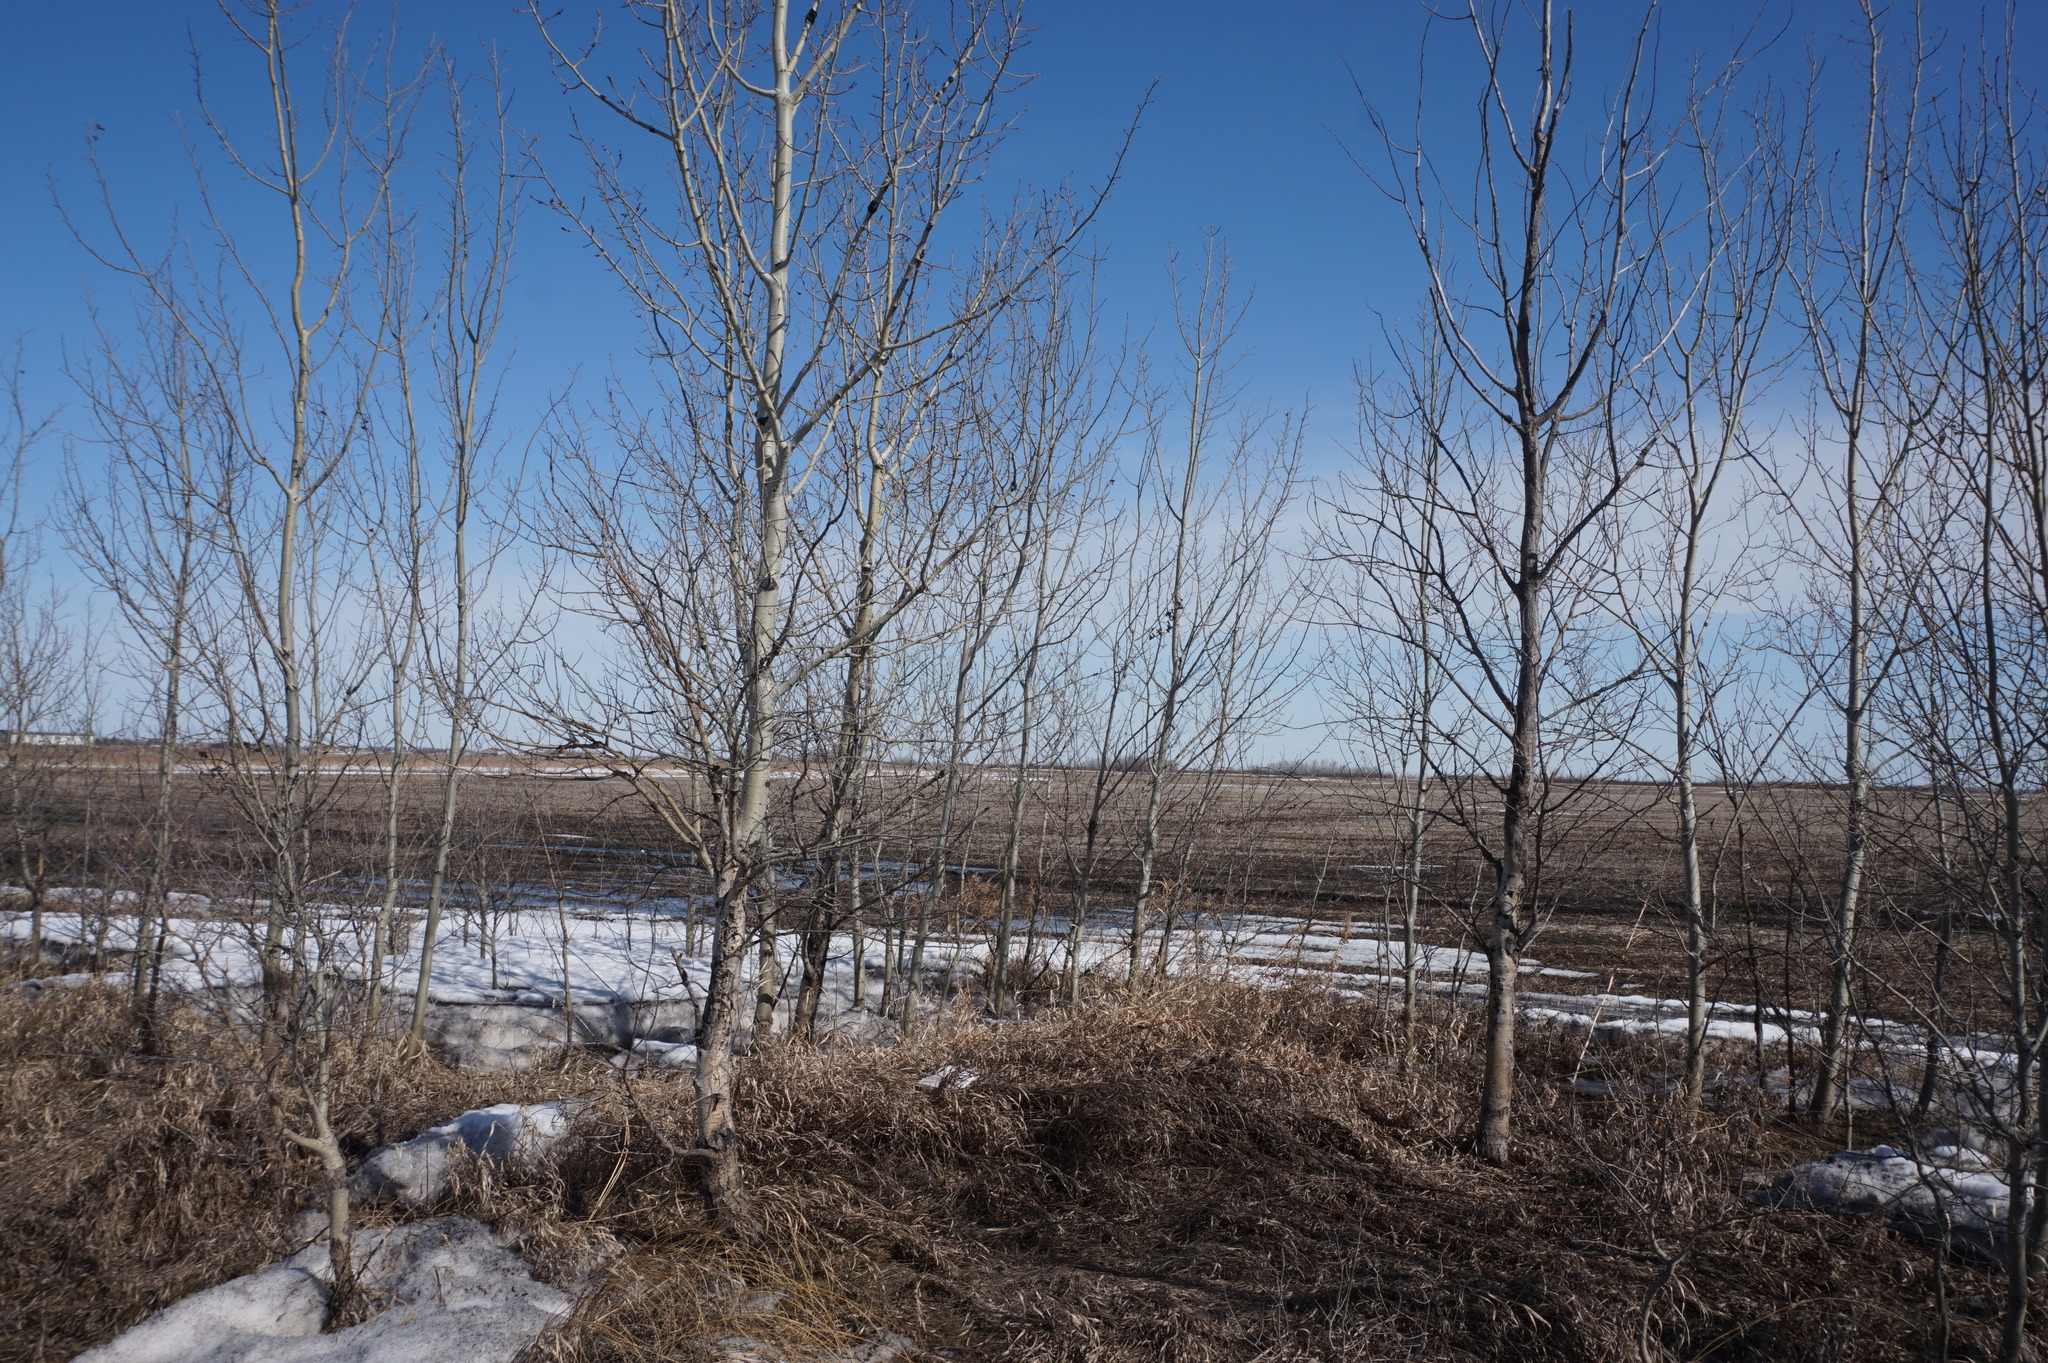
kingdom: Plantae
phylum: Tracheophyta
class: Magnoliopsida
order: Malpighiales
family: Salicaceae
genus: Populus
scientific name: Populus balsamifera
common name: Balsam poplar
